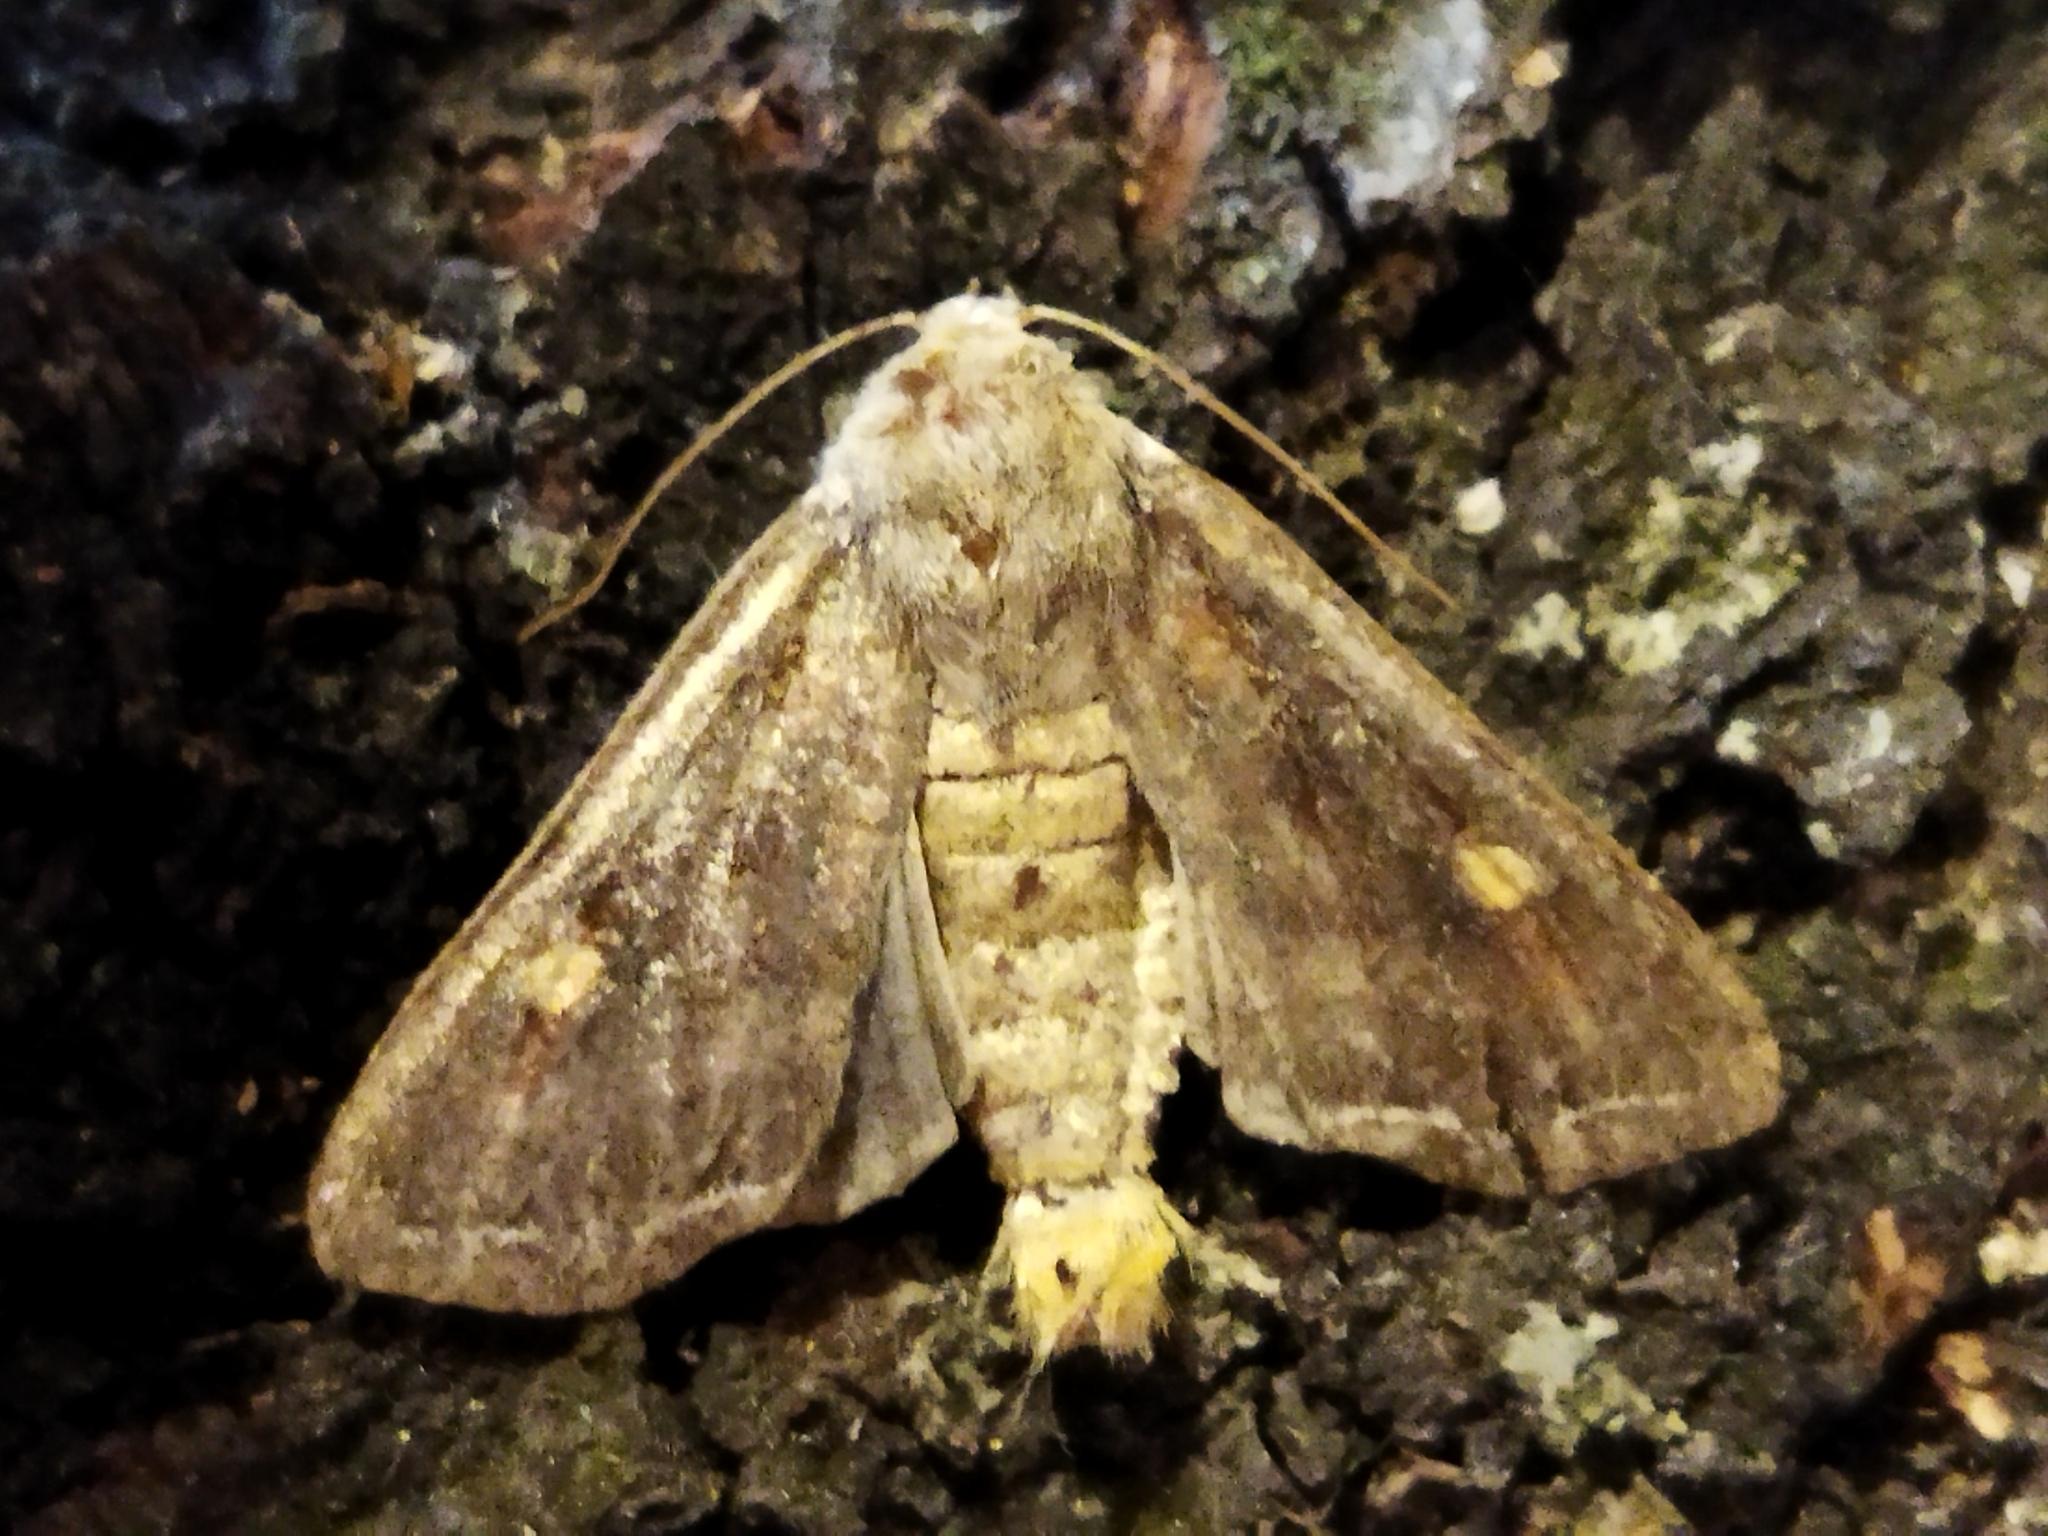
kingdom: Animalia
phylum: Arthropoda
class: Insecta
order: Lepidoptera
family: Noctuidae
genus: Lacanobia
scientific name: Lacanobia oleracea
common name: Bright-line brown-eye
